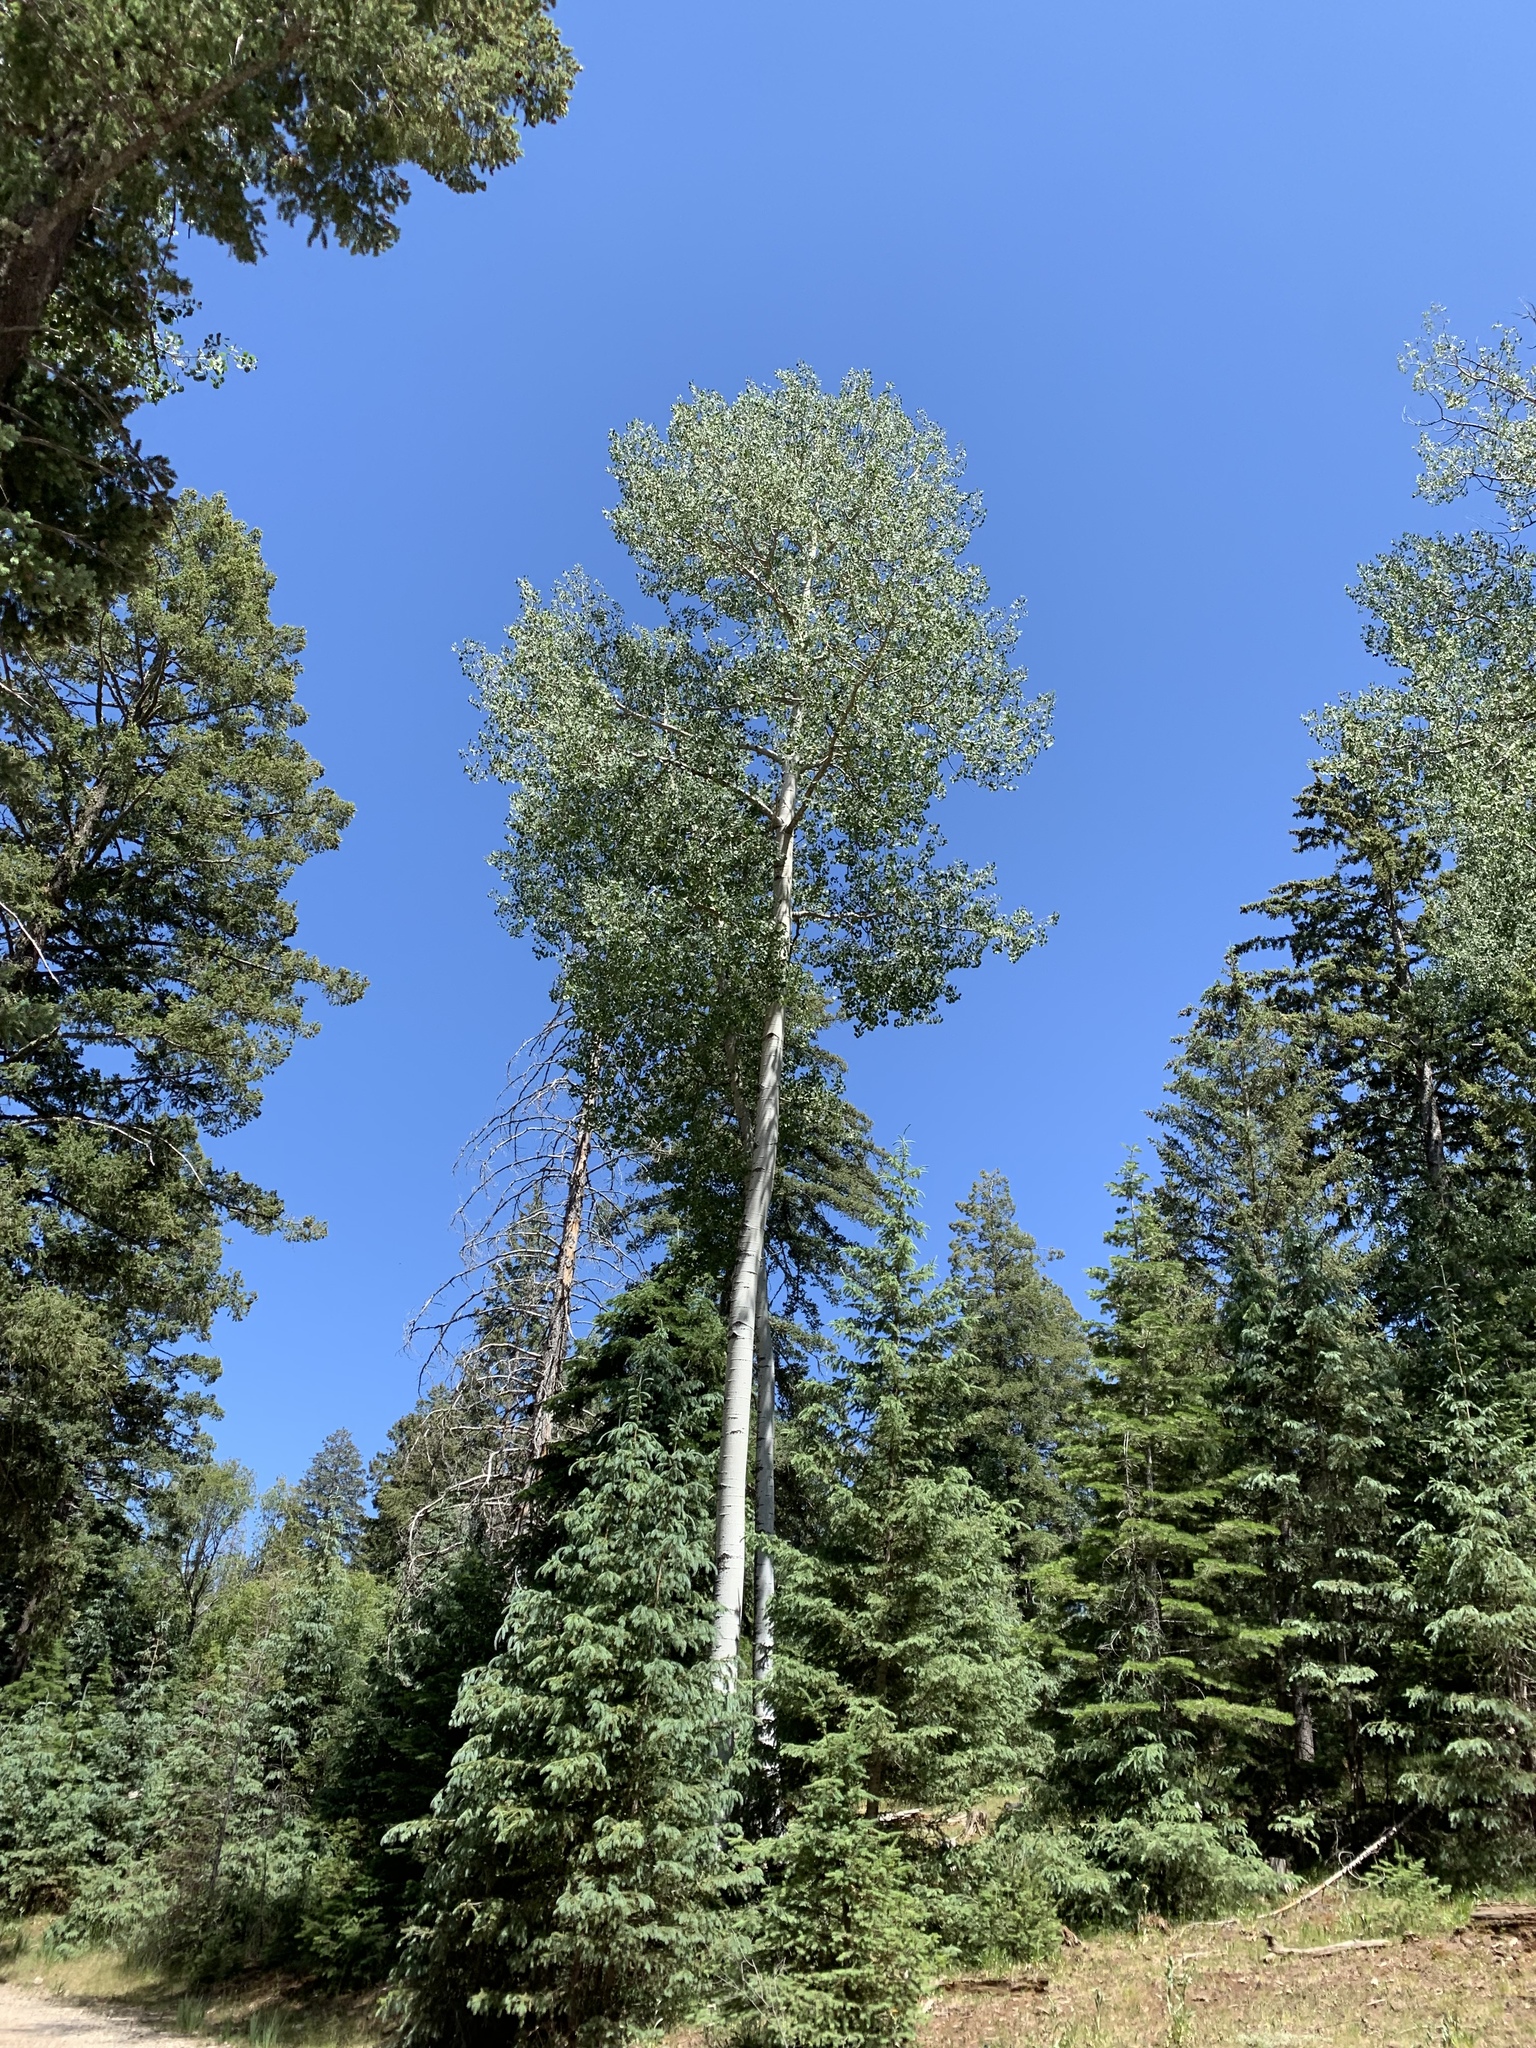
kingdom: Plantae
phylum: Tracheophyta
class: Magnoliopsida
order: Malpighiales
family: Salicaceae
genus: Populus
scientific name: Populus tremuloides
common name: Quaking aspen
